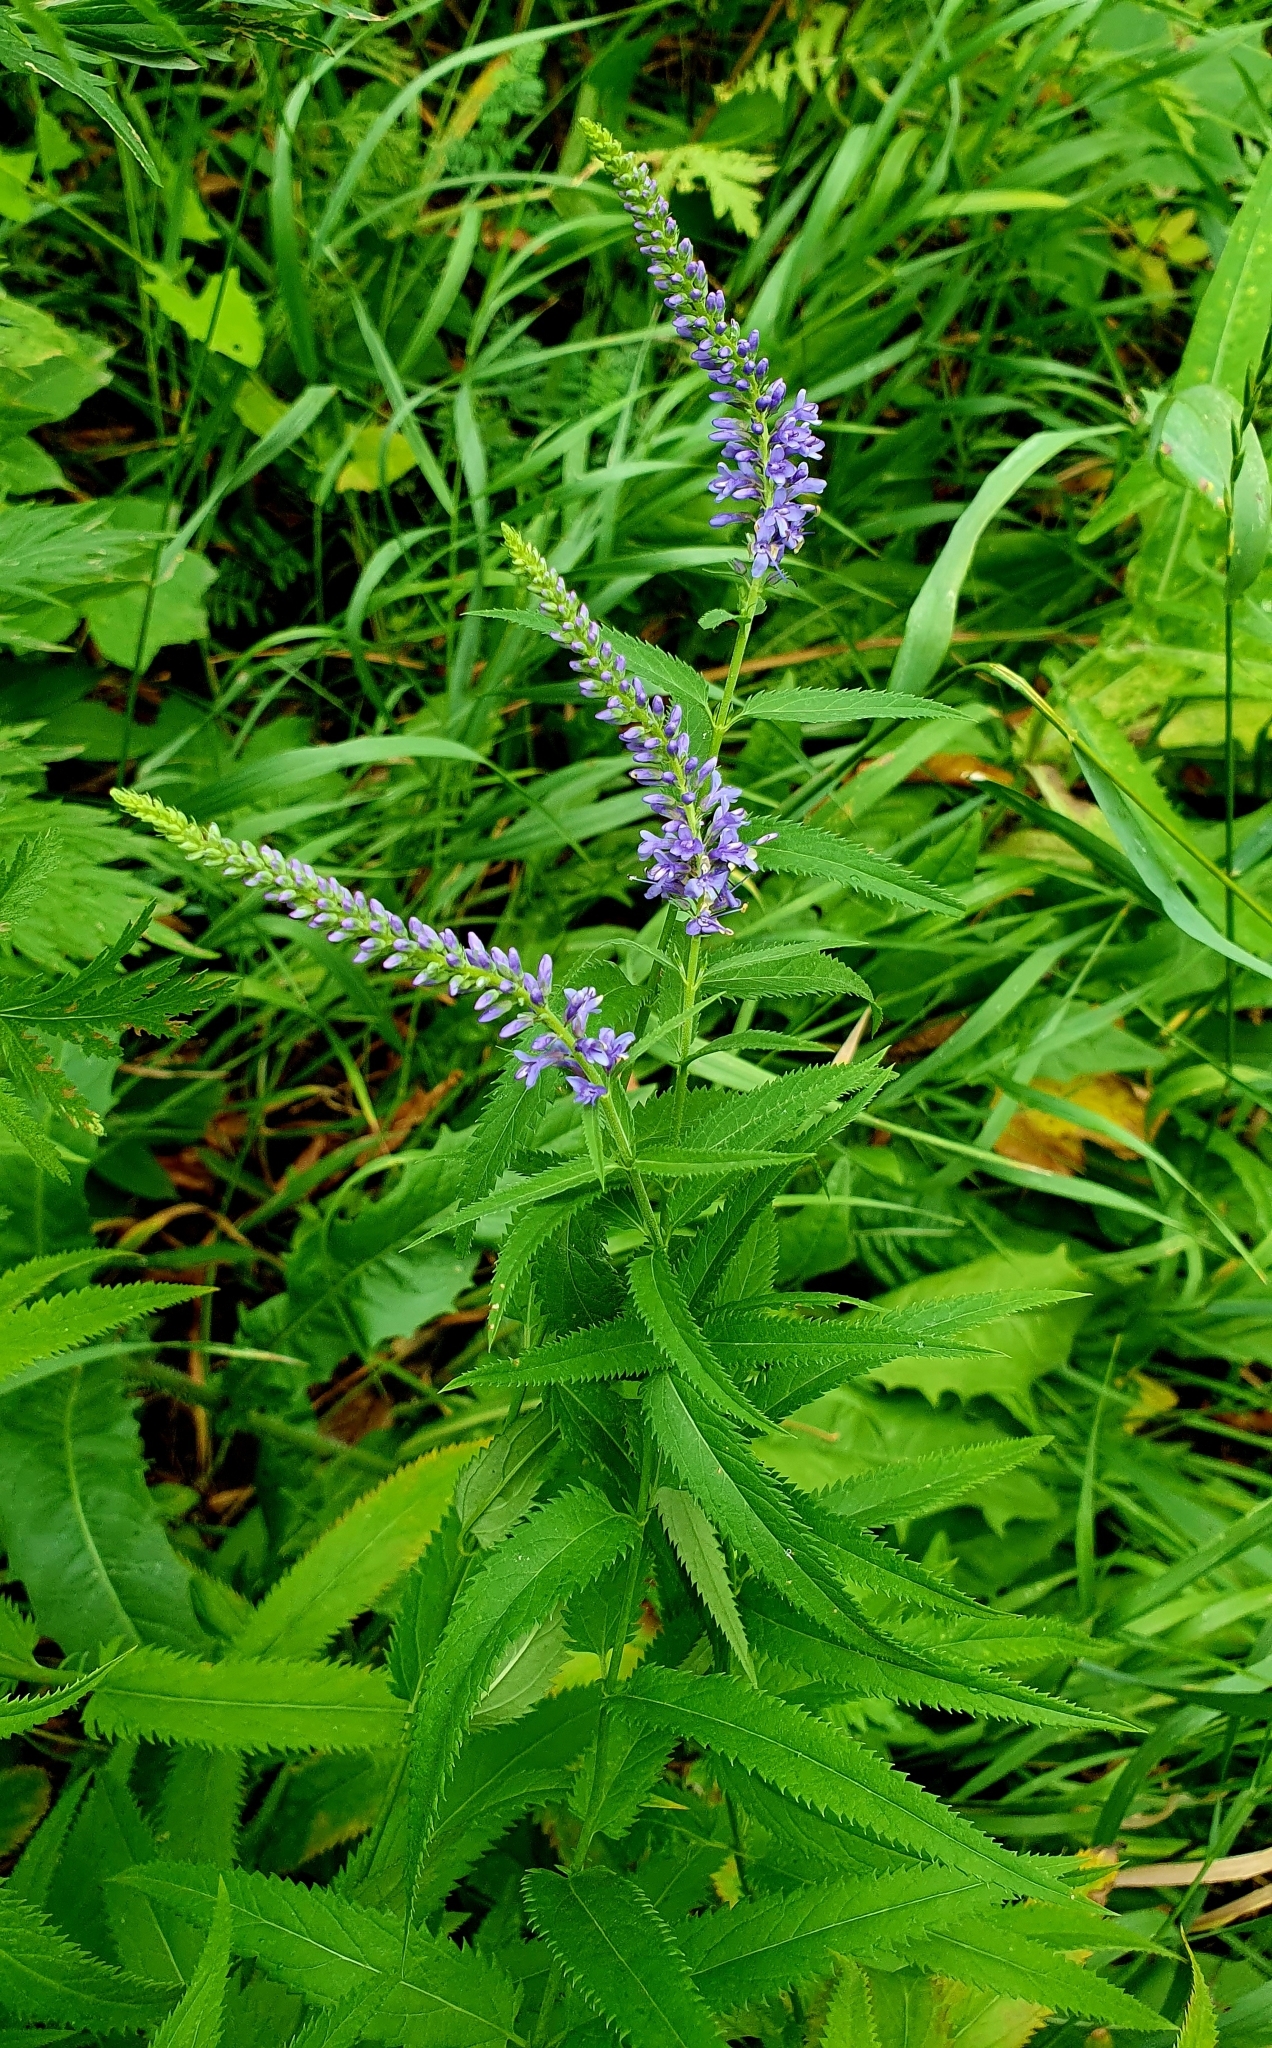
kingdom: Plantae
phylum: Tracheophyta
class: Magnoliopsida
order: Lamiales
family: Plantaginaceae
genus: Veronica
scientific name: Veronica longifolia
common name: Garden speedwell
